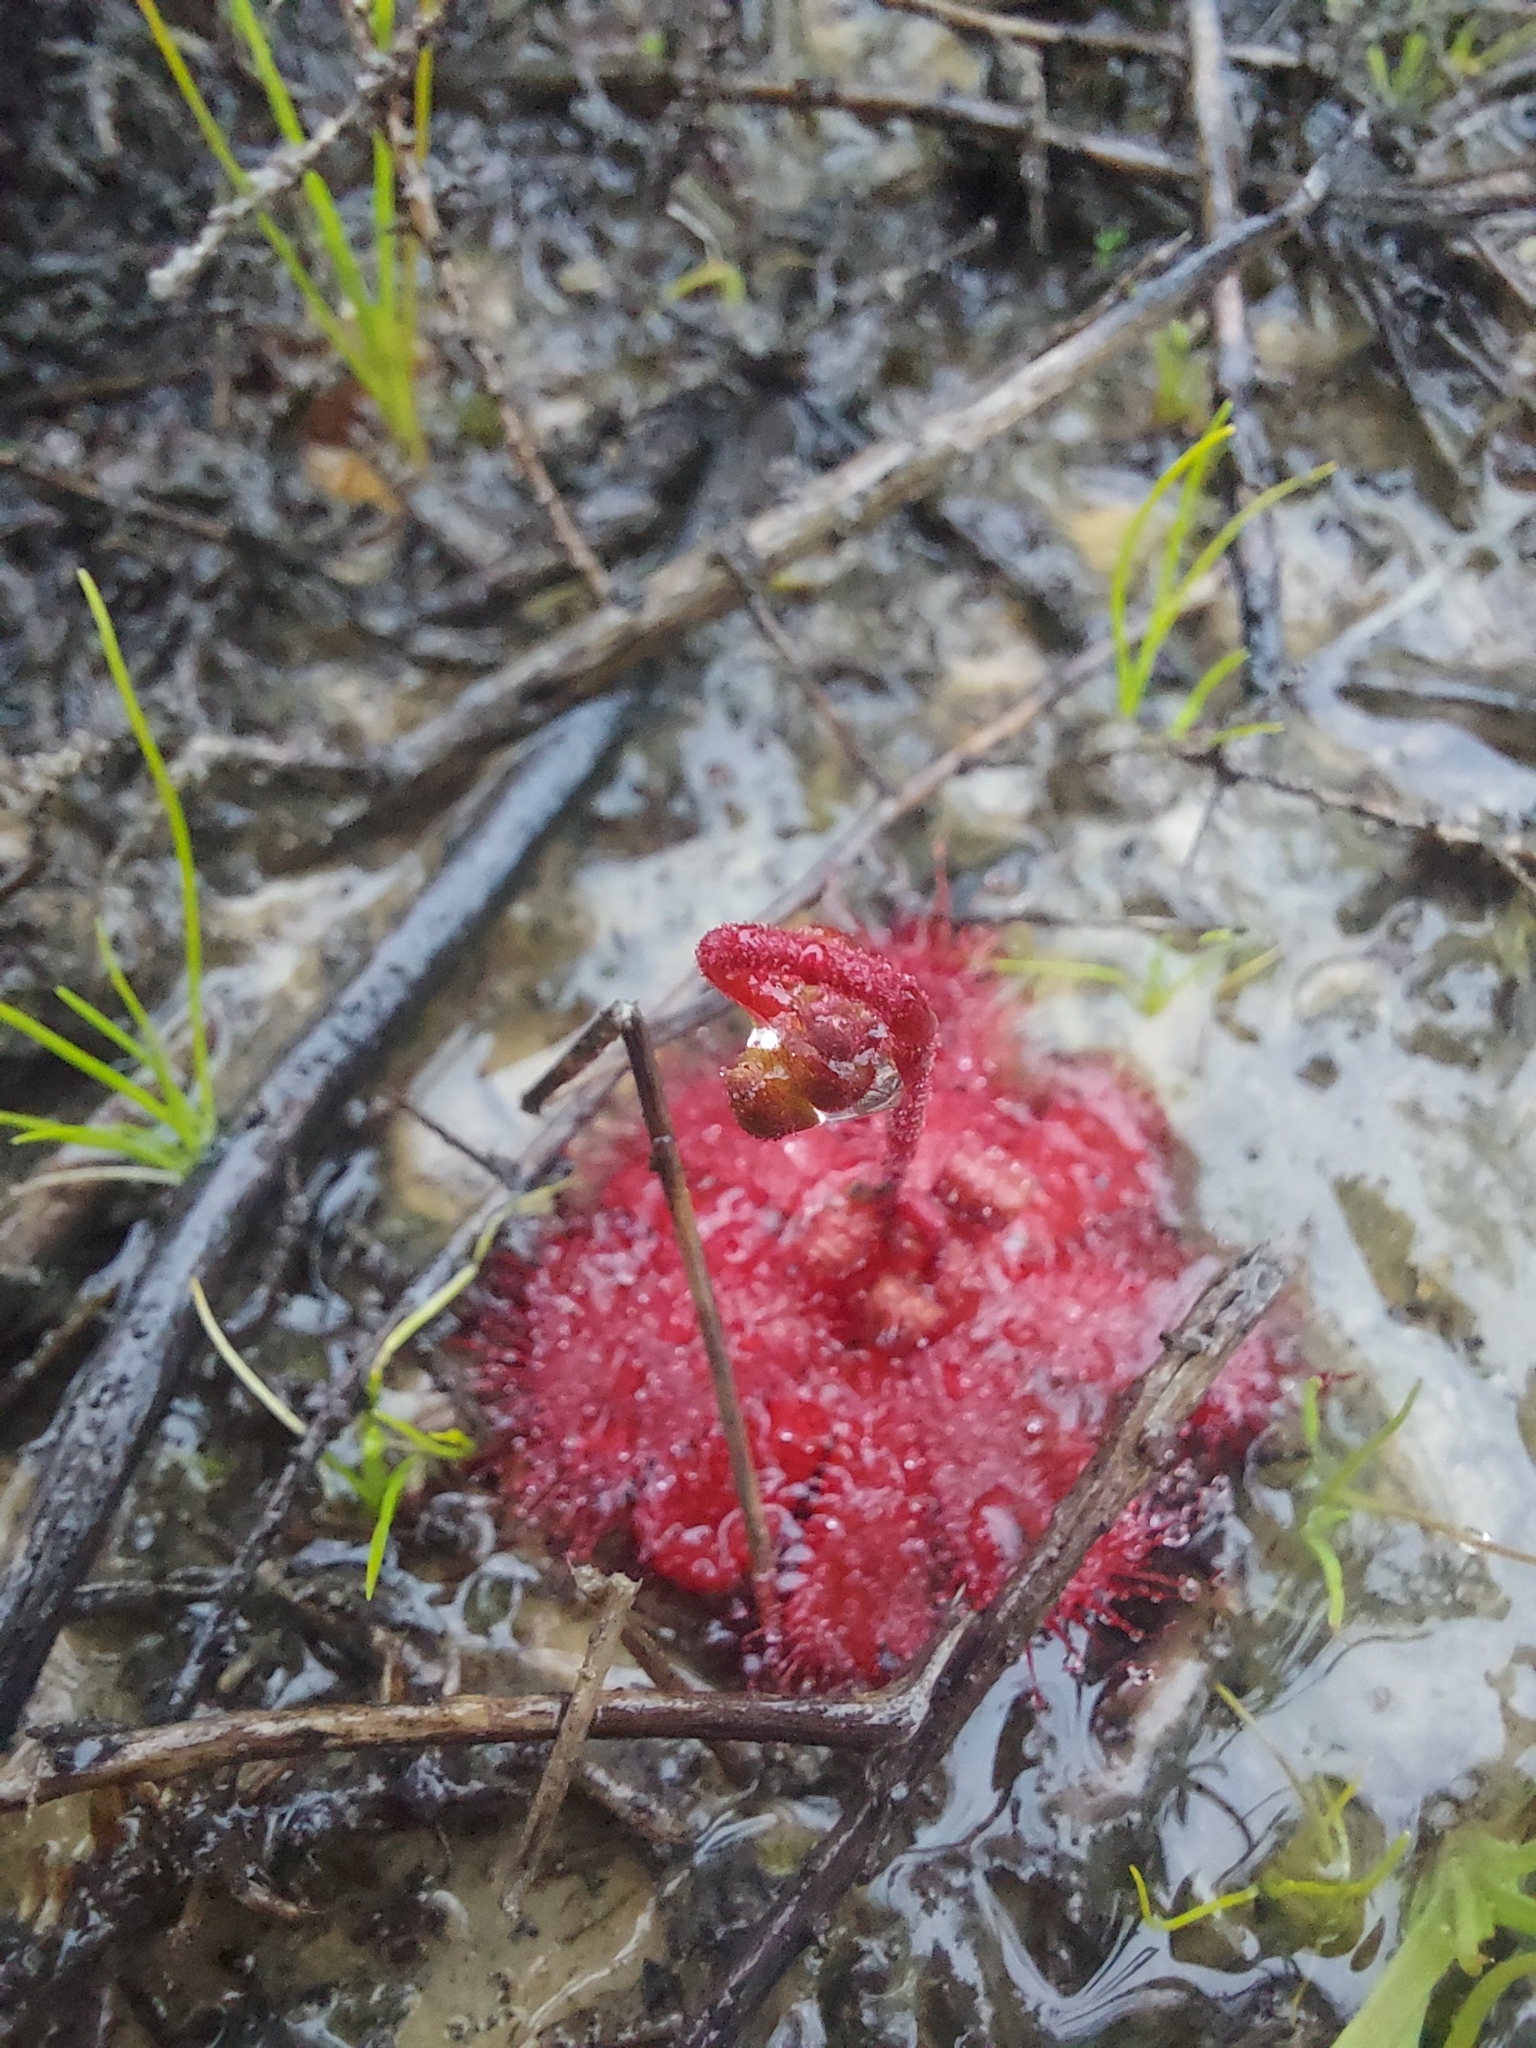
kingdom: Plantae
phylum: Tracheophyta
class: Magnoliopsida
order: Caryophyllales
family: Droseraceae
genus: Drosera
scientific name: Drosera trinervia
